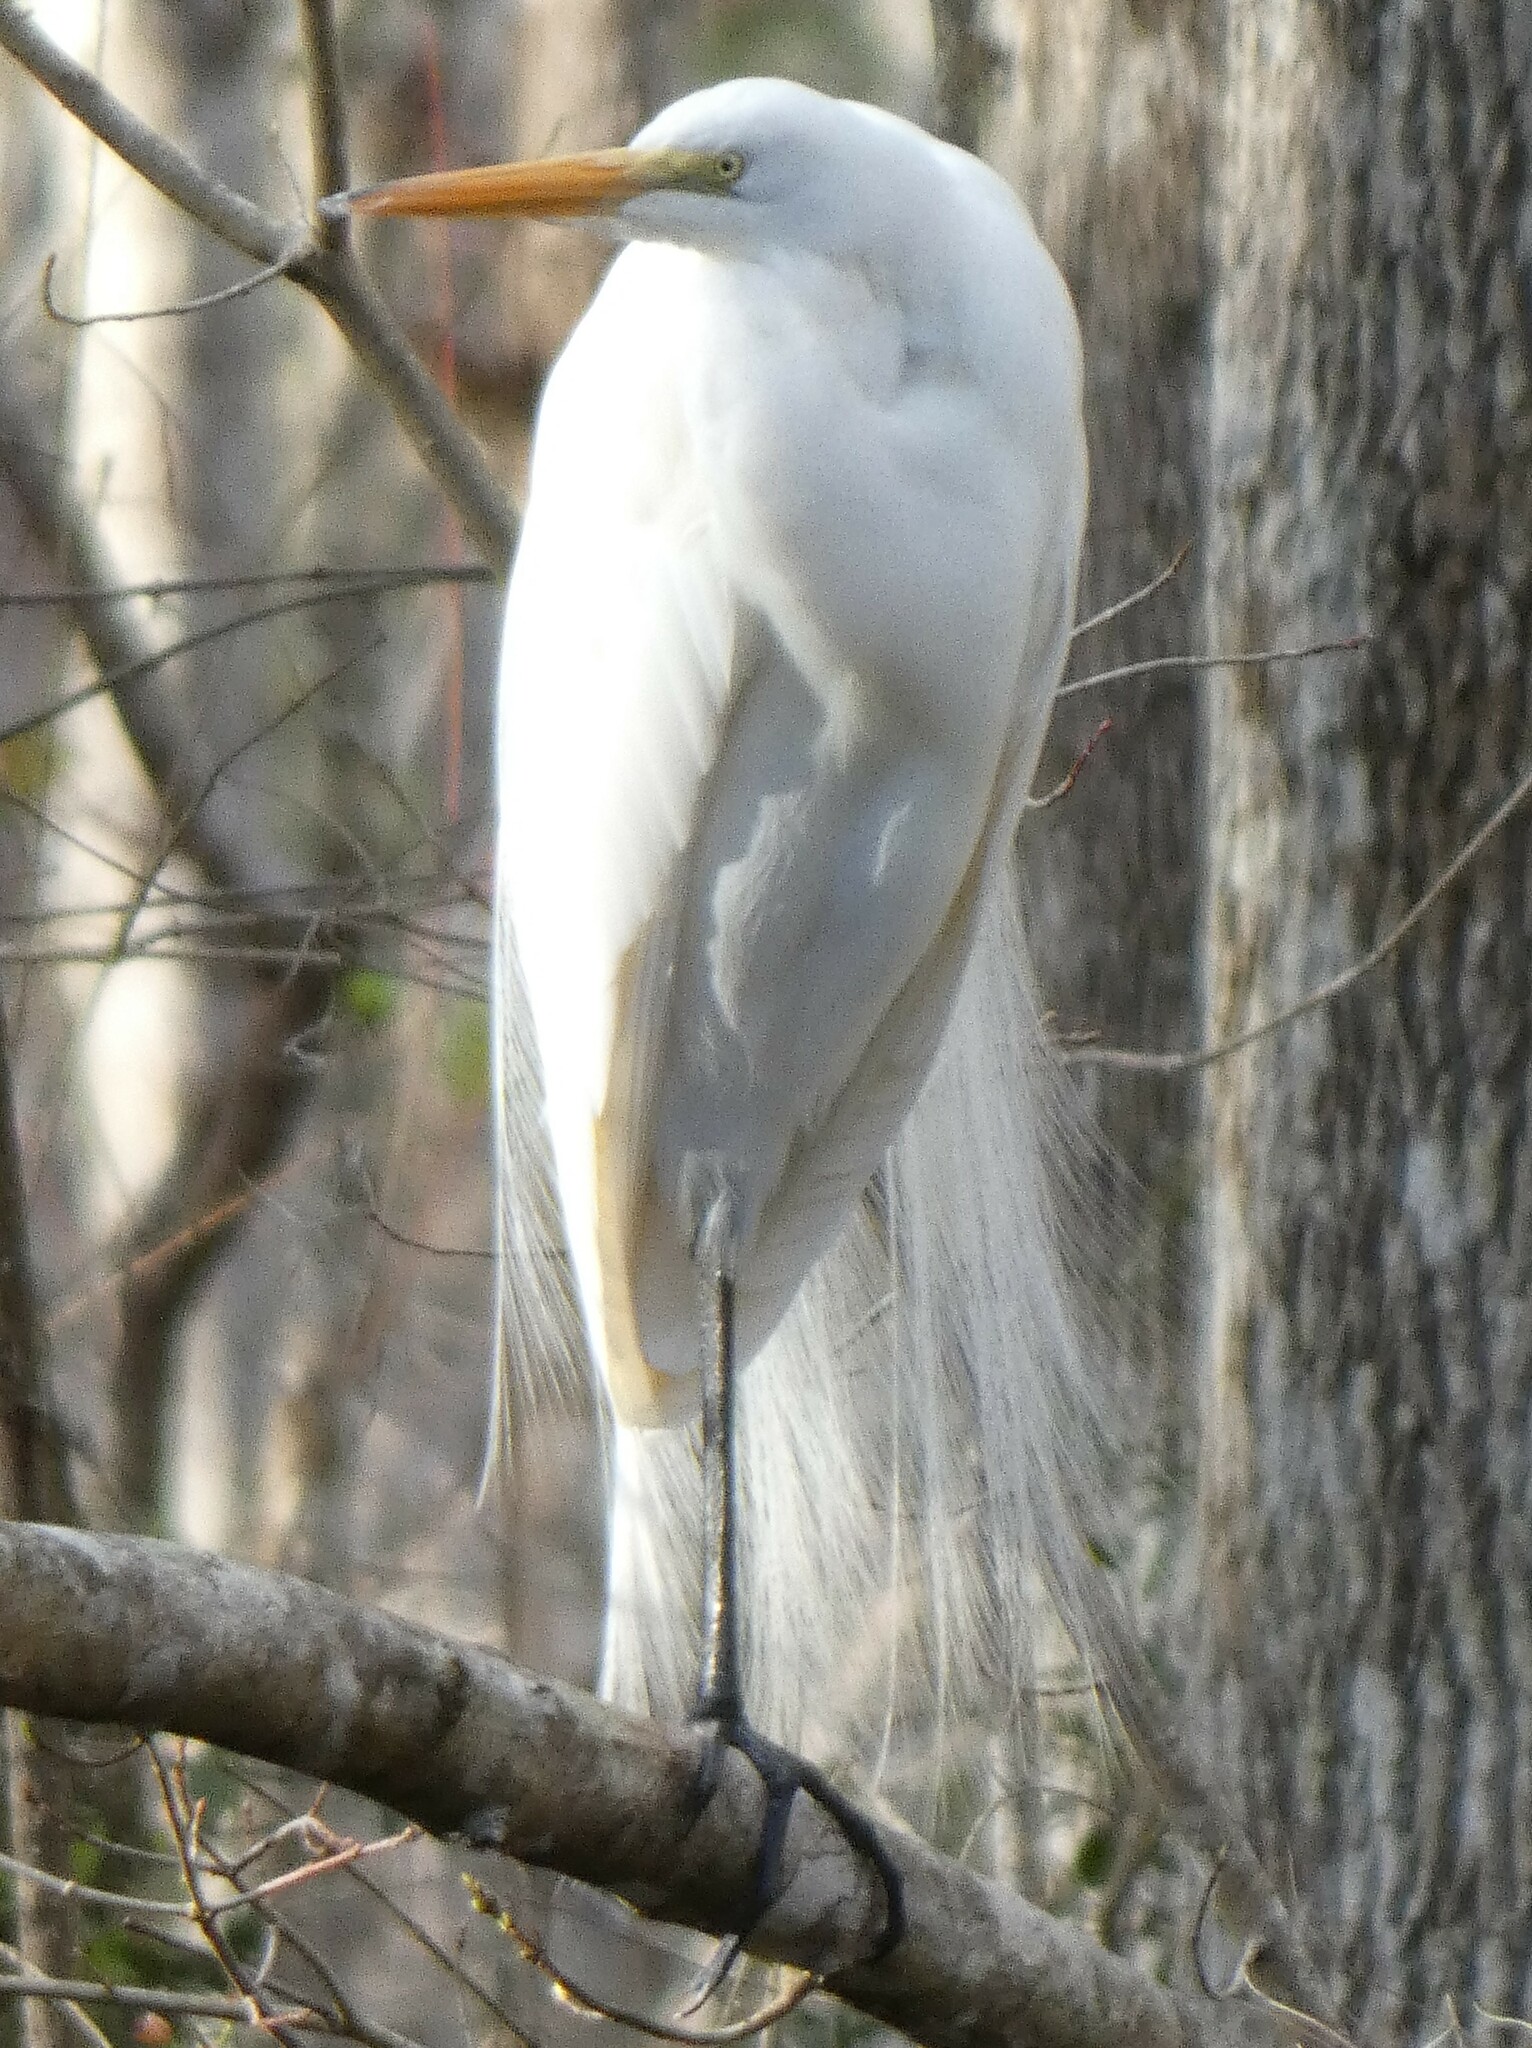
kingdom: Animalia
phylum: Chordata
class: Aves
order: Pelecaniformes
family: Ardeidae
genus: Ardea
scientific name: Ardea alba
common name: Great egret
